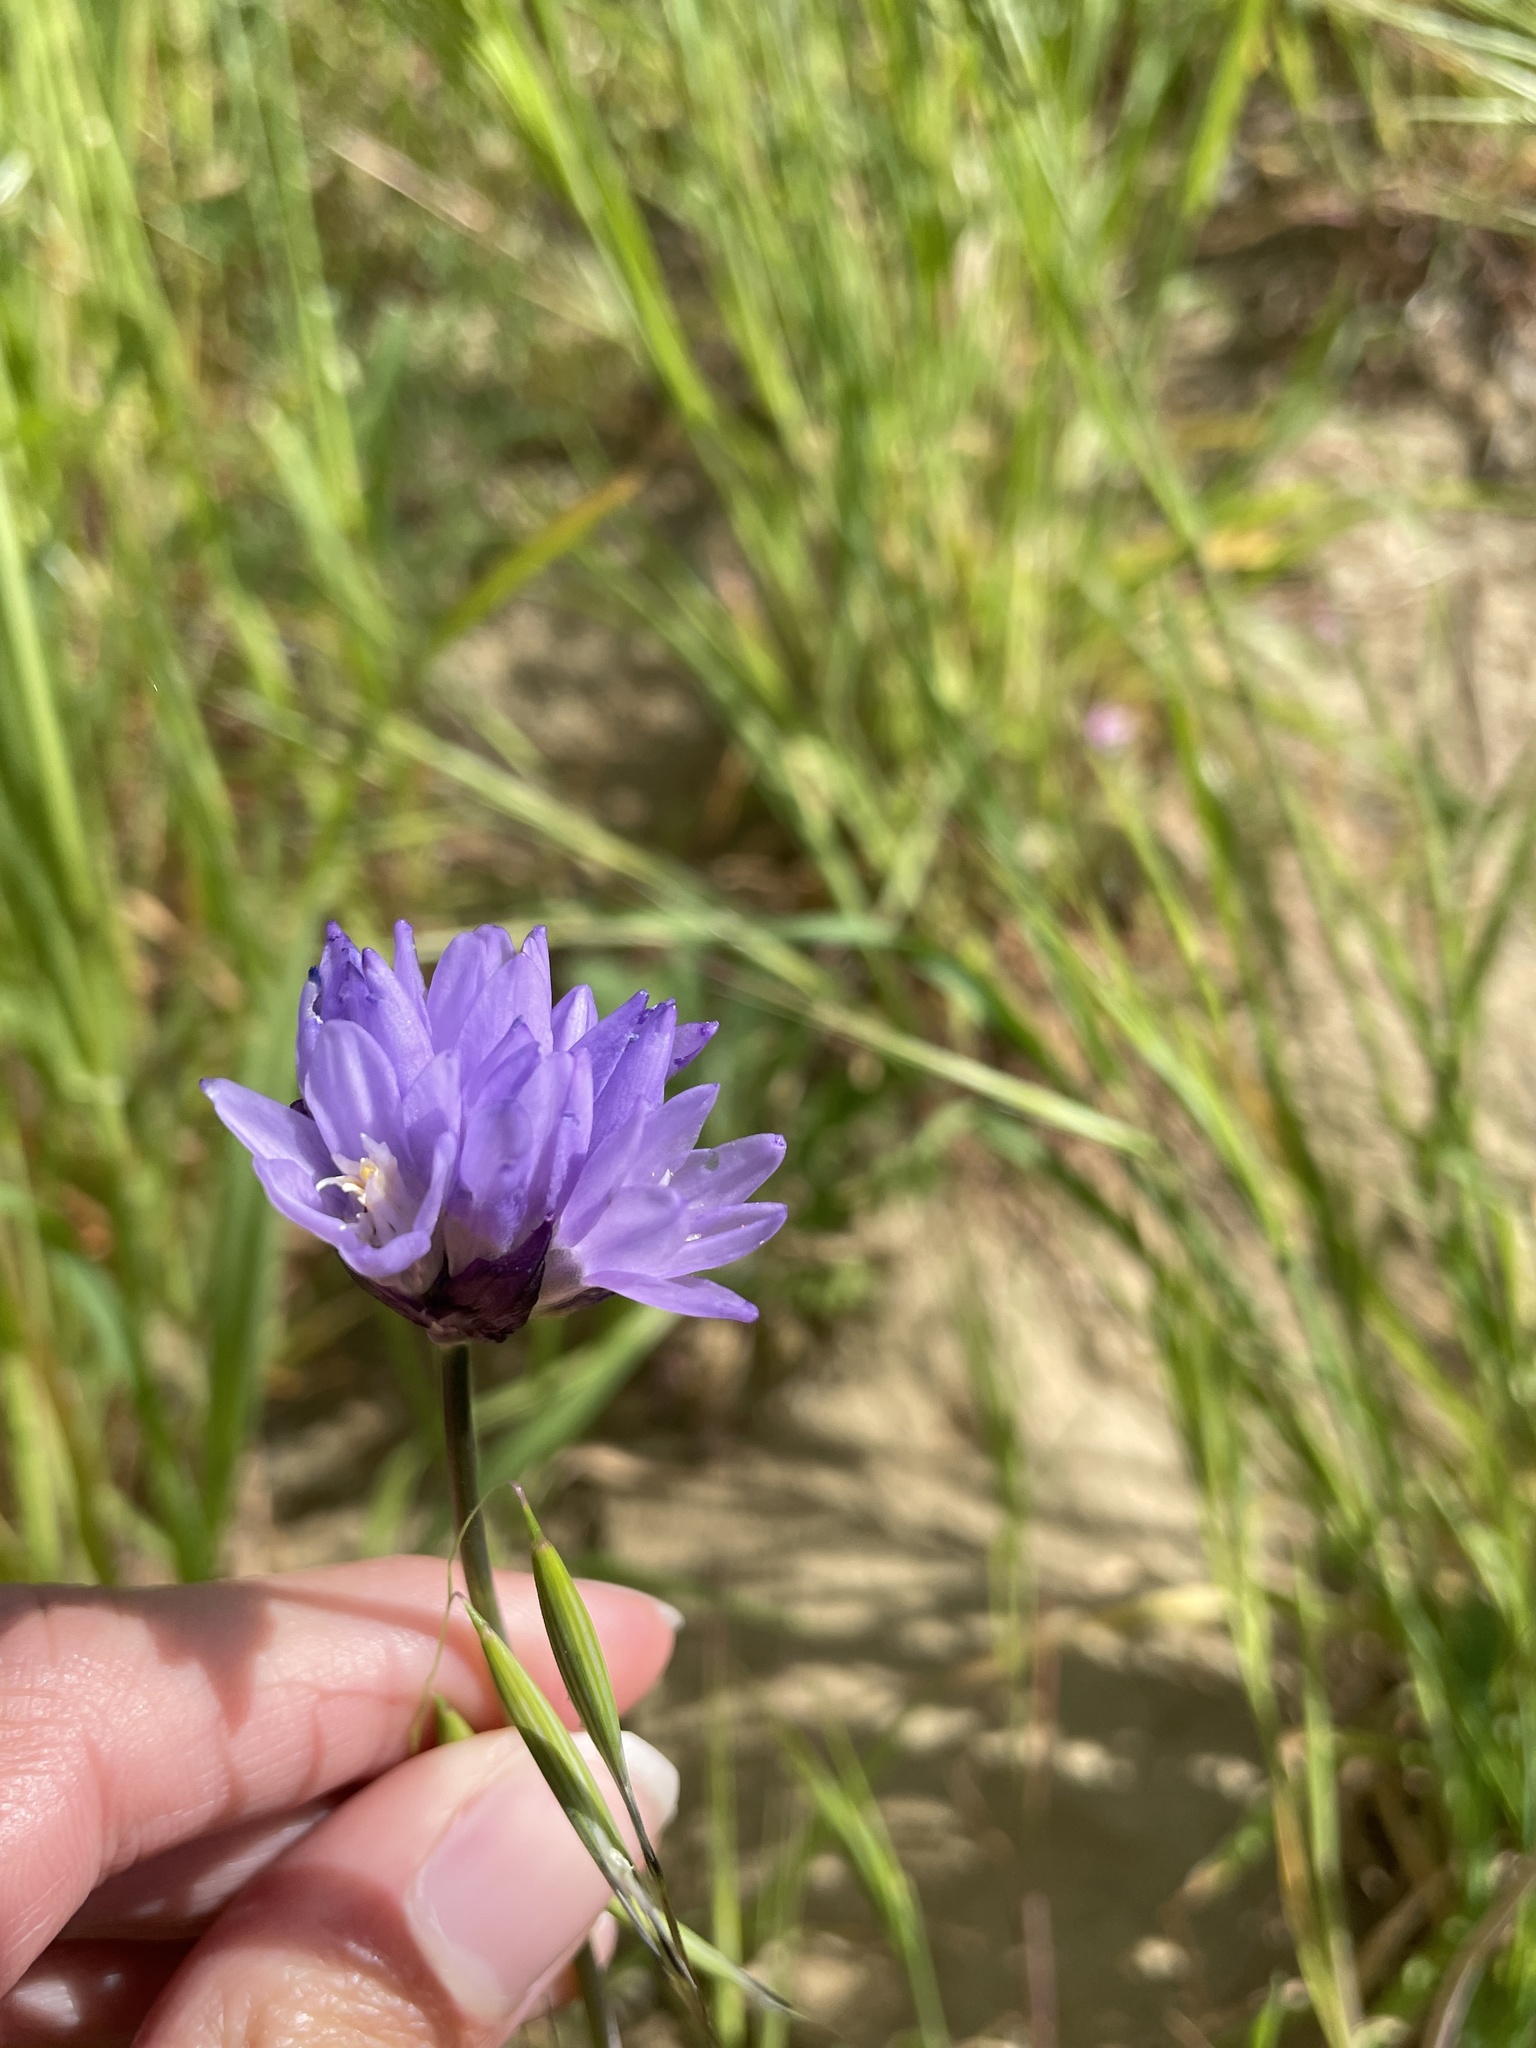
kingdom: Plantae
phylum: Tracheophyta
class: Liliopsida
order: Asparagales
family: Asparagaceae
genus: Dipterostemon
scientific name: Dipterostemon capitatus
